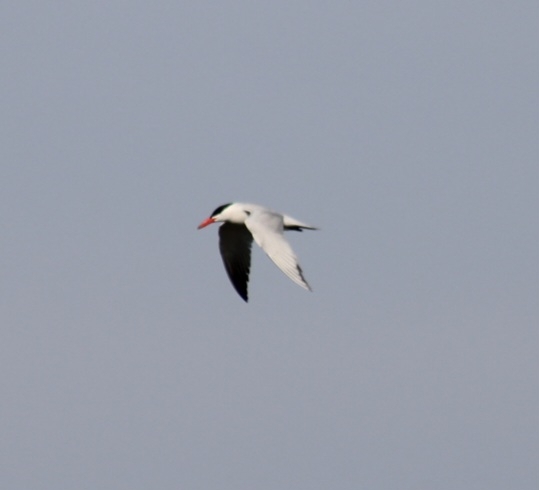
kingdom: Animalia
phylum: Chordata
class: Aves
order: Charadriiformes
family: Laridae
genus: Hydroprogne
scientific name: Hydroprogne caspia
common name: Caspian tern
